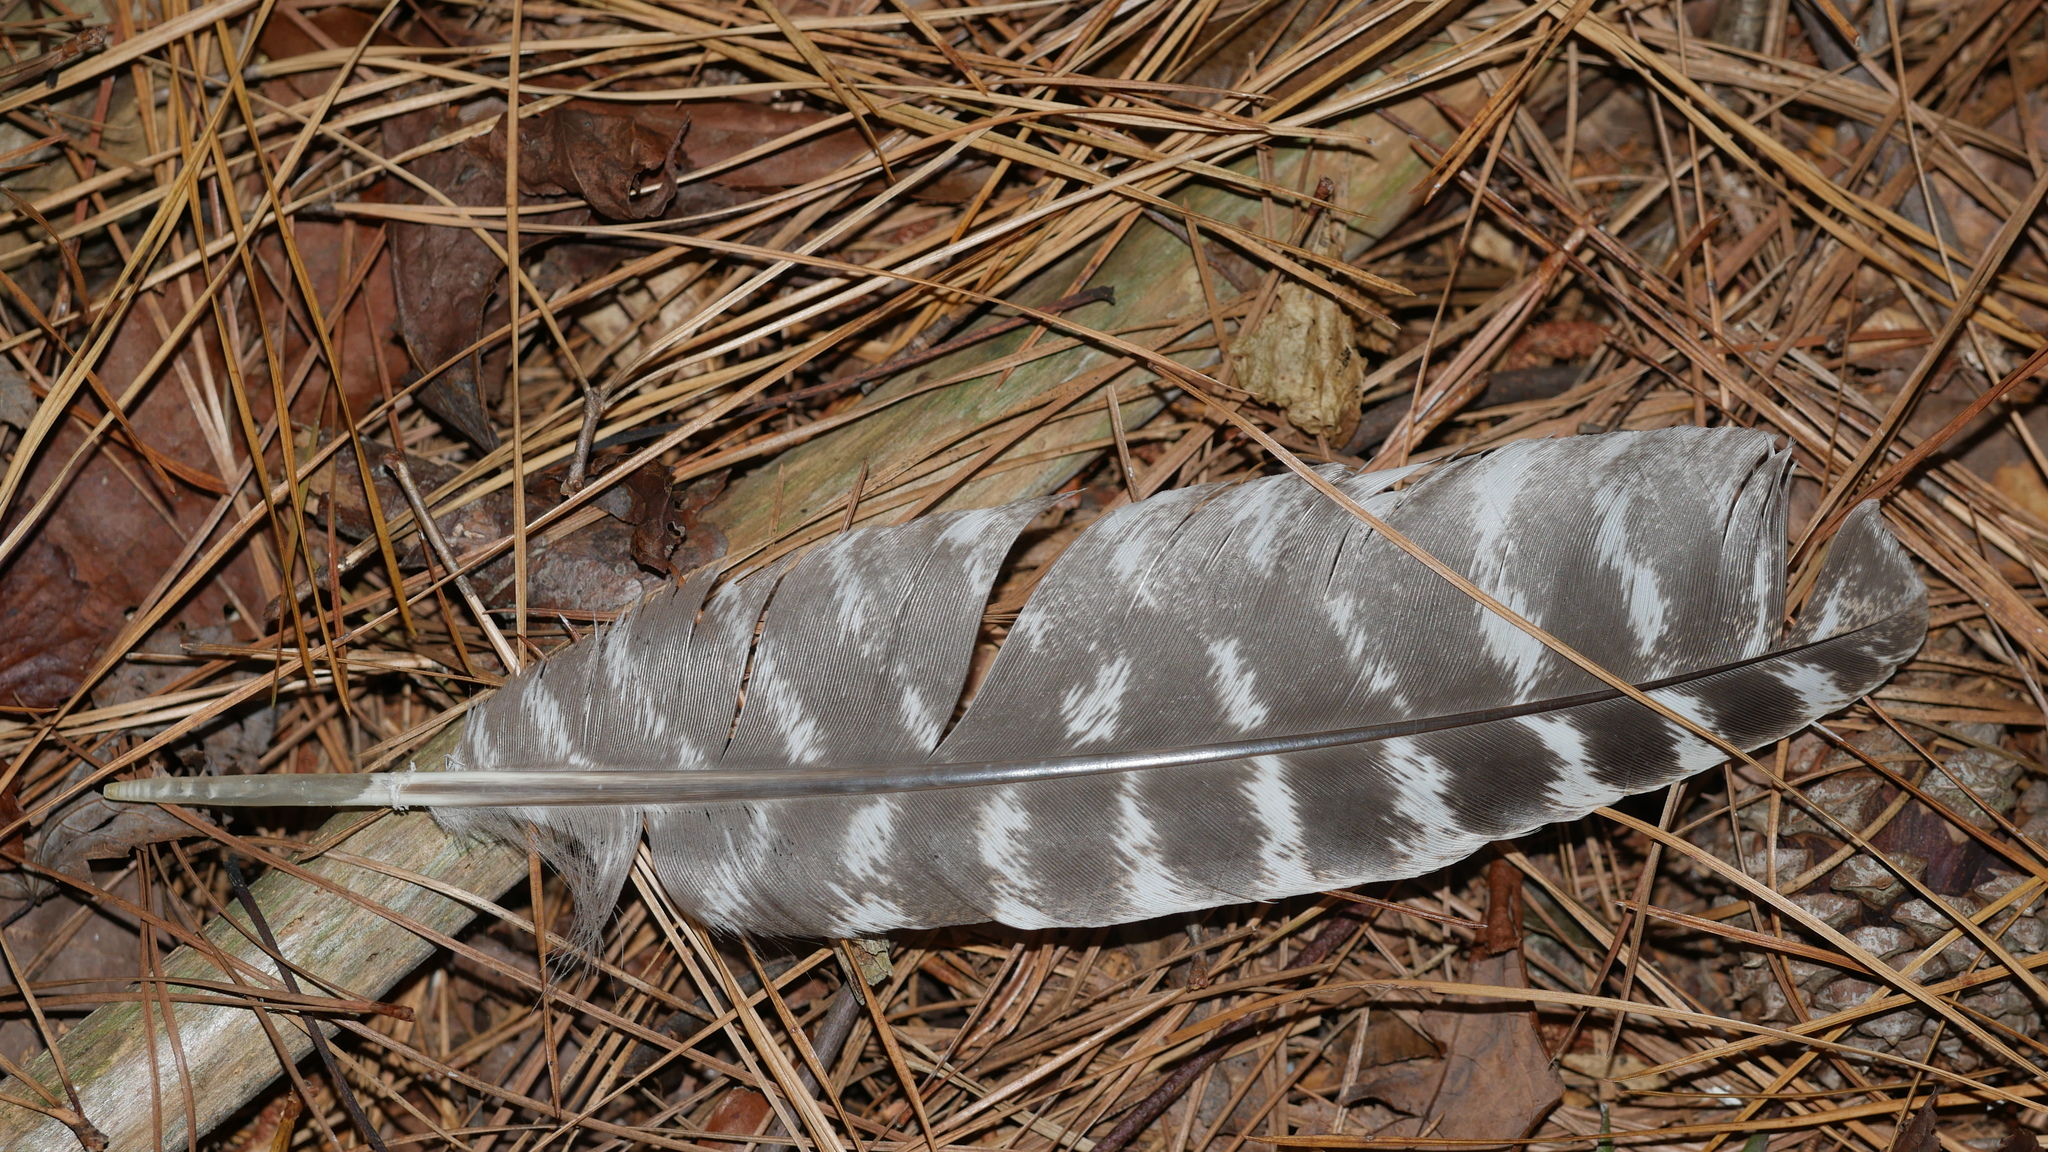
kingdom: Animalia
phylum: Chordata
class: Aves
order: Galliformes
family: Phasianidae
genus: Meleagris
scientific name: Meleagris gallopavo
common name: Wild turkey
